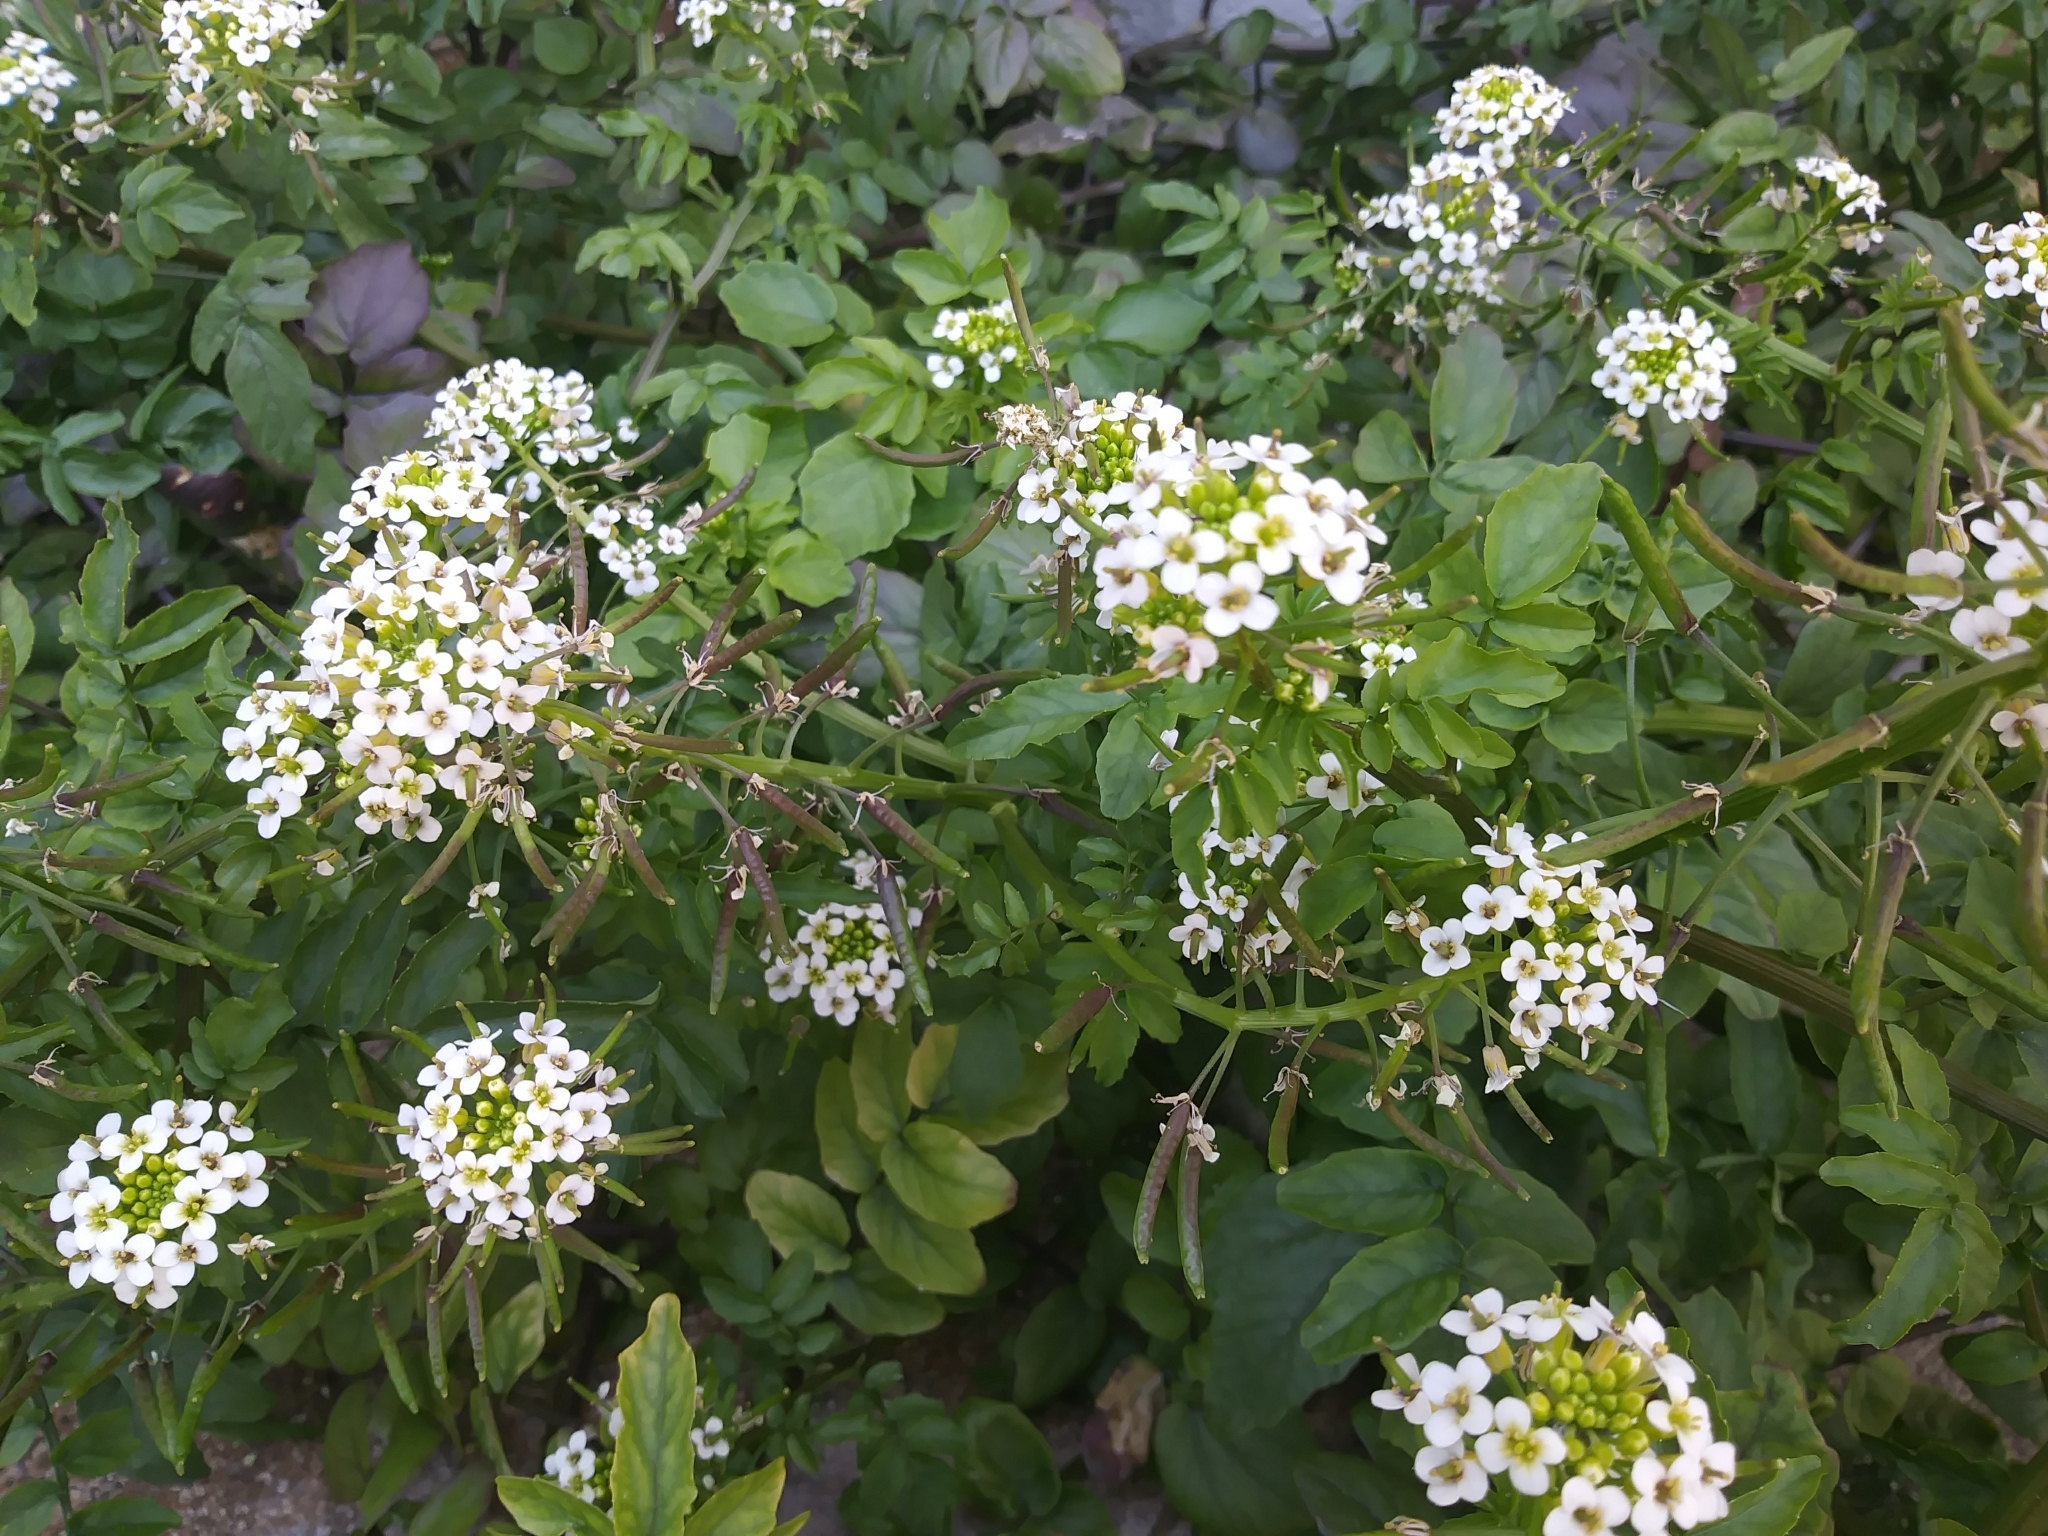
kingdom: Plantae
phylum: Tracheophyta
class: Magnoliopsida
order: Brassicales
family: Brassicaceae
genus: Nasturtium
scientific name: Nasturtium officinale
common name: Watercress
